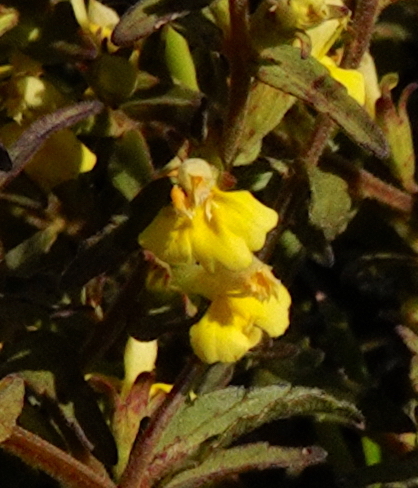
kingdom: Plantae
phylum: Tracheophyta
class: Magnoliopsida
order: Lamiales
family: Orobanchaceae
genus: Odontites
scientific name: Odontites hollianus
